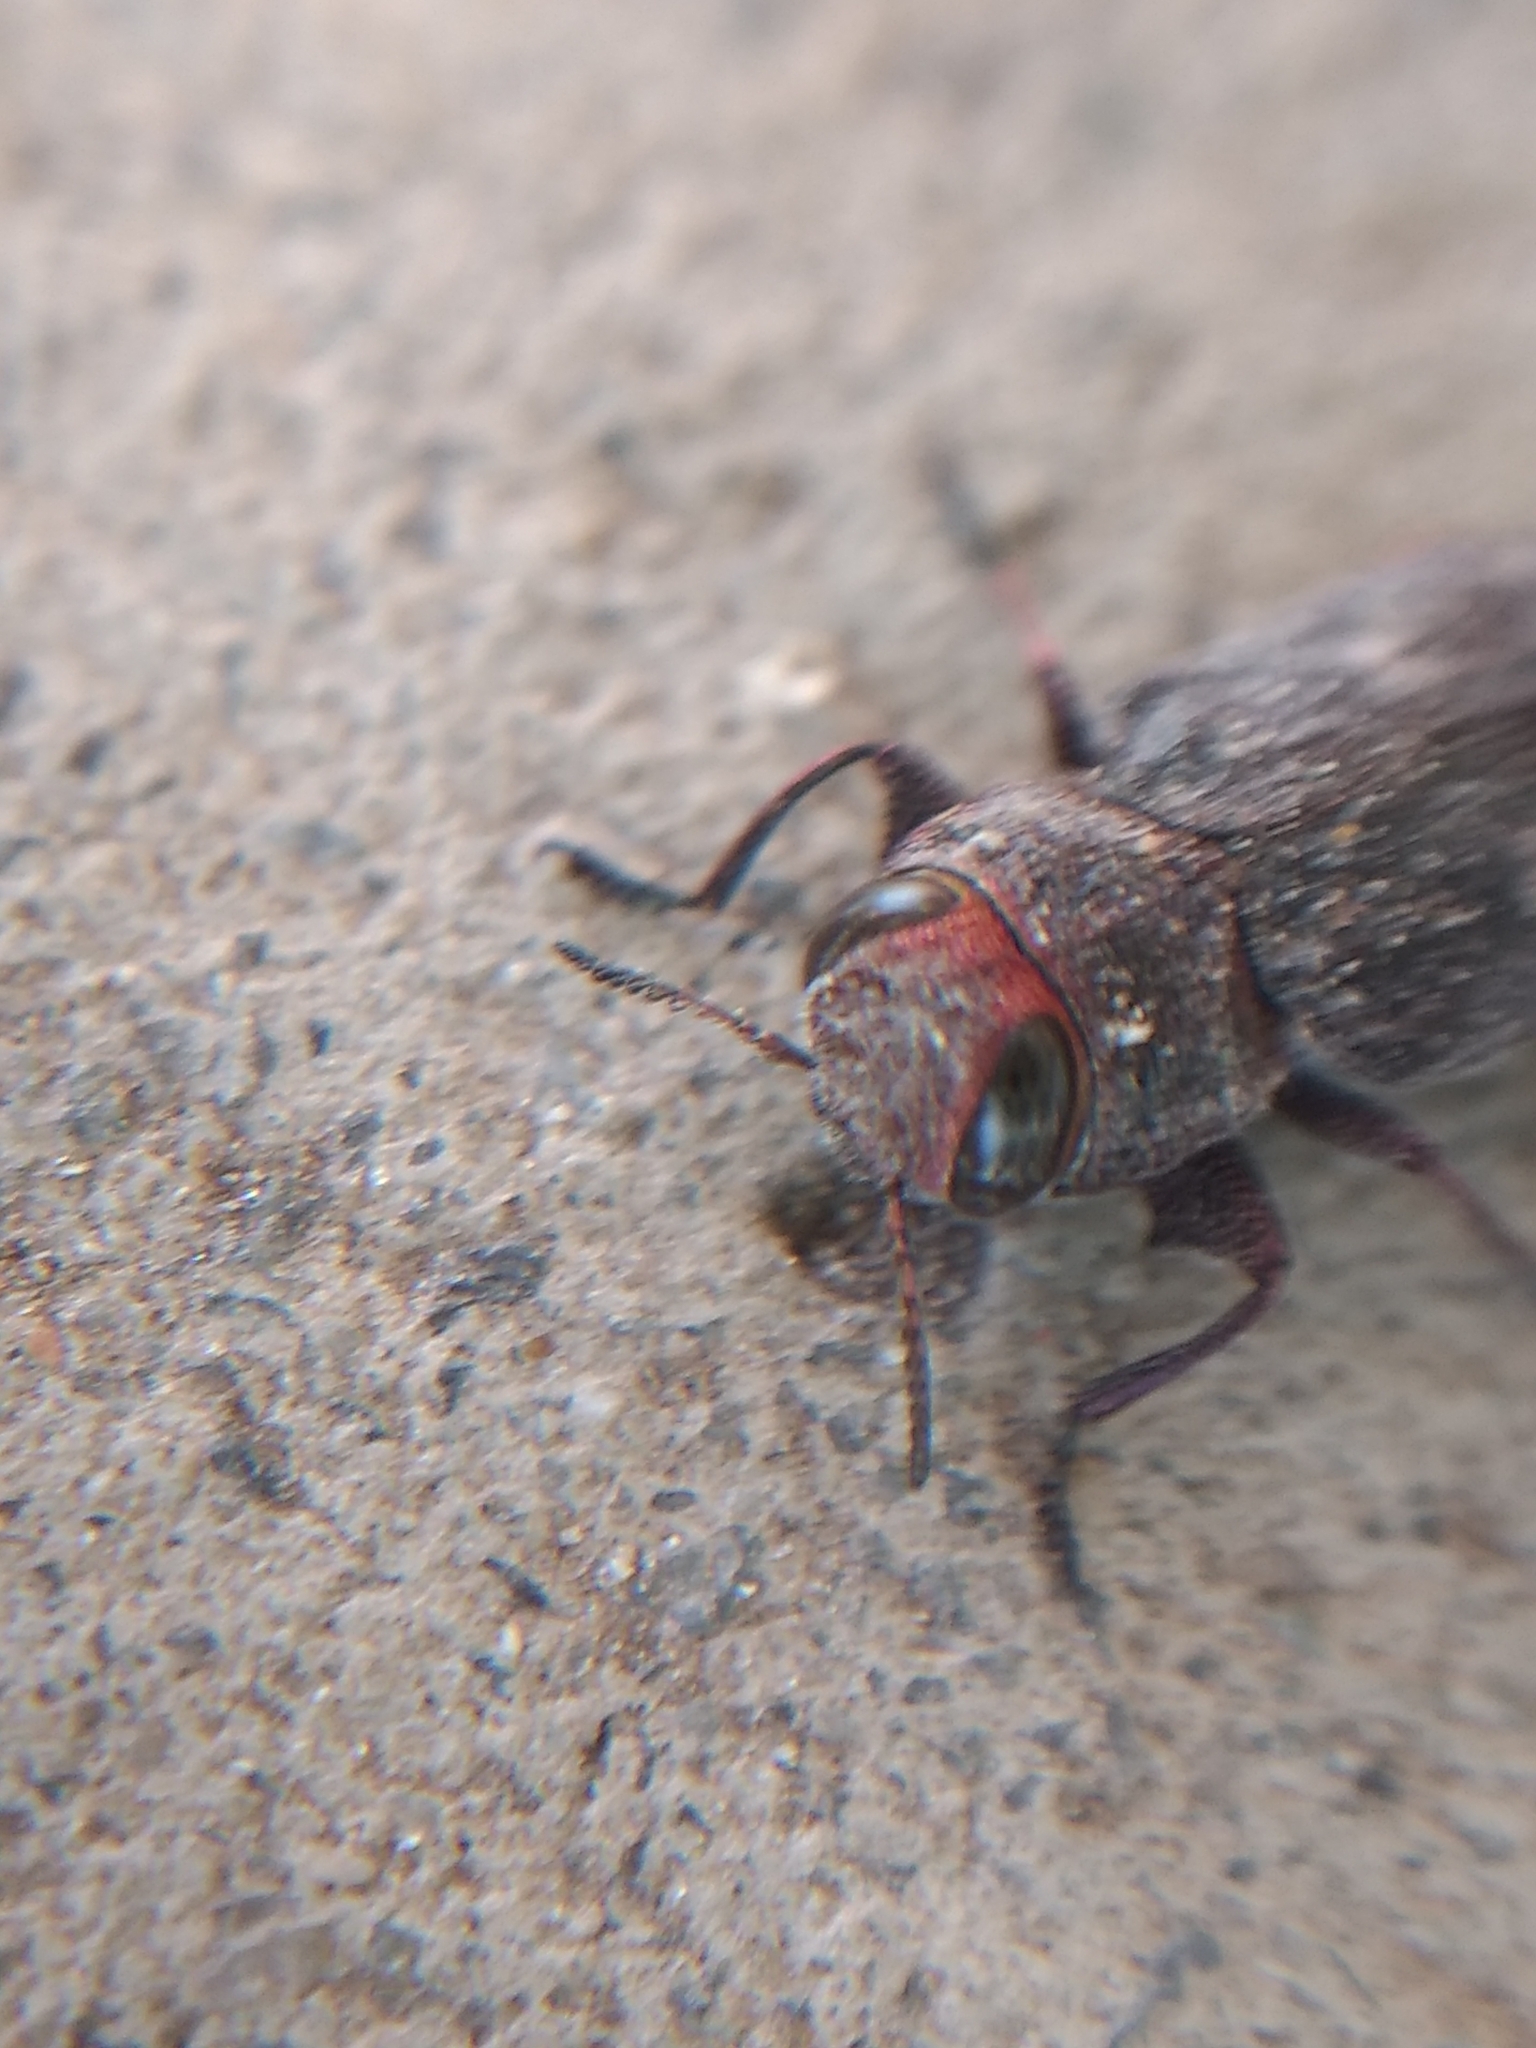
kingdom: Animalia
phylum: Arthropoda
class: Insecta
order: Coleoptera
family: Buprestidae
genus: Chrysobothris
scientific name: Chrysobothris mali
